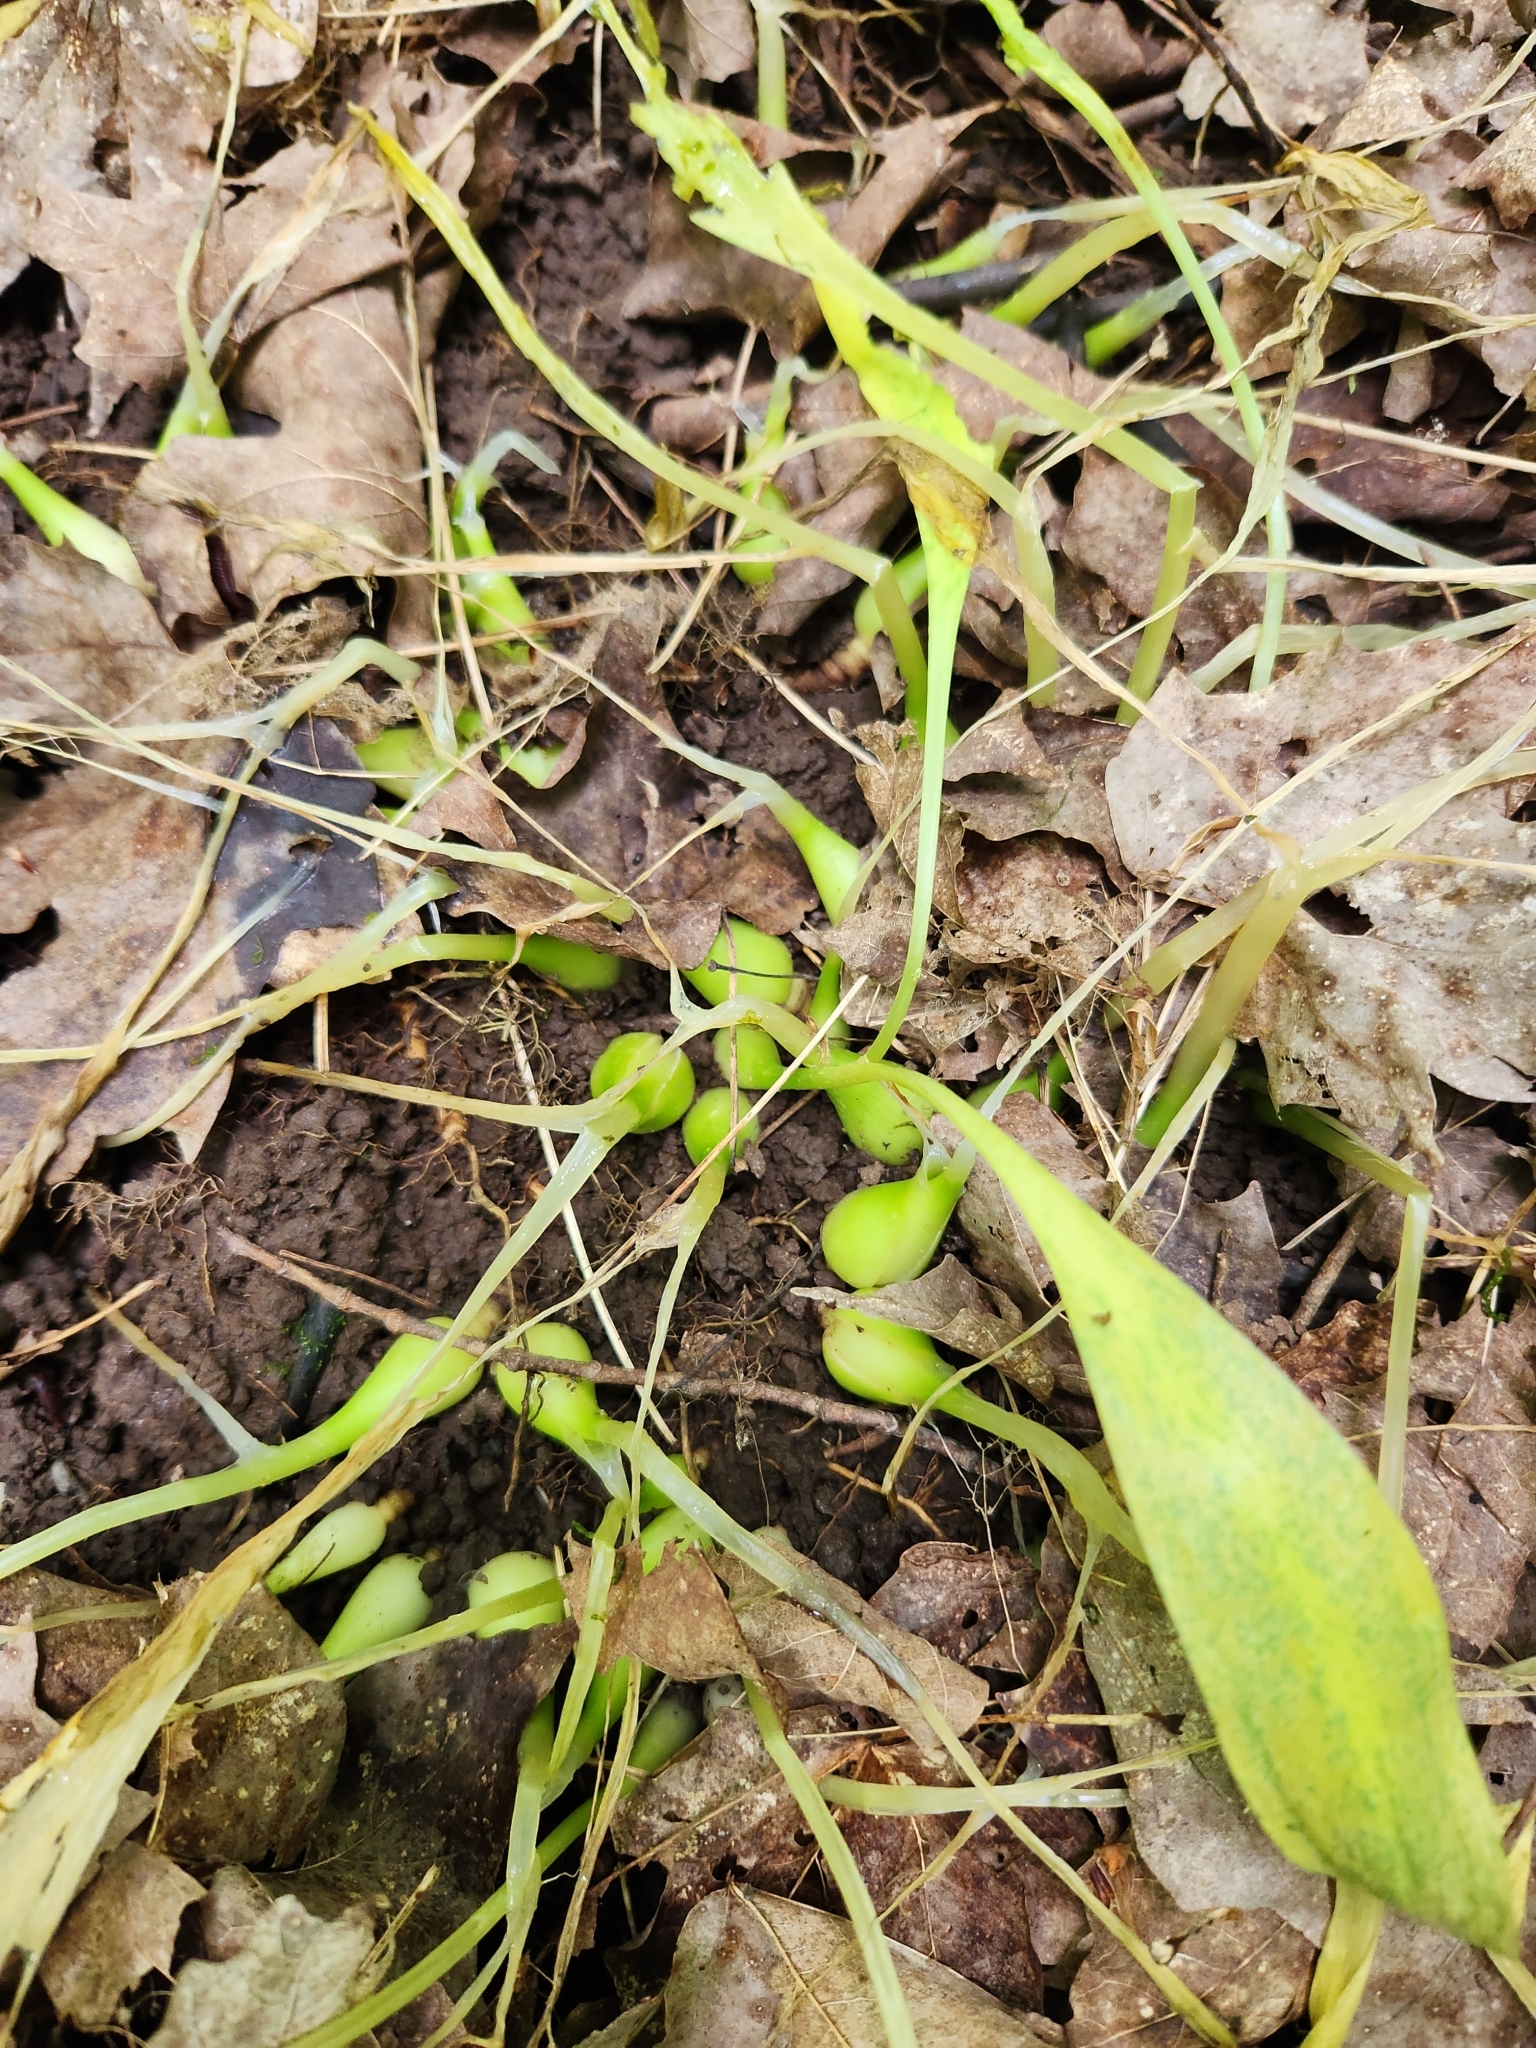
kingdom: Plantae
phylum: Tracheophyta
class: Liliopsida
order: Asparagales
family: Amaryllidaceae
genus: Allium
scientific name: Allium tricoccum
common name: Ramp
